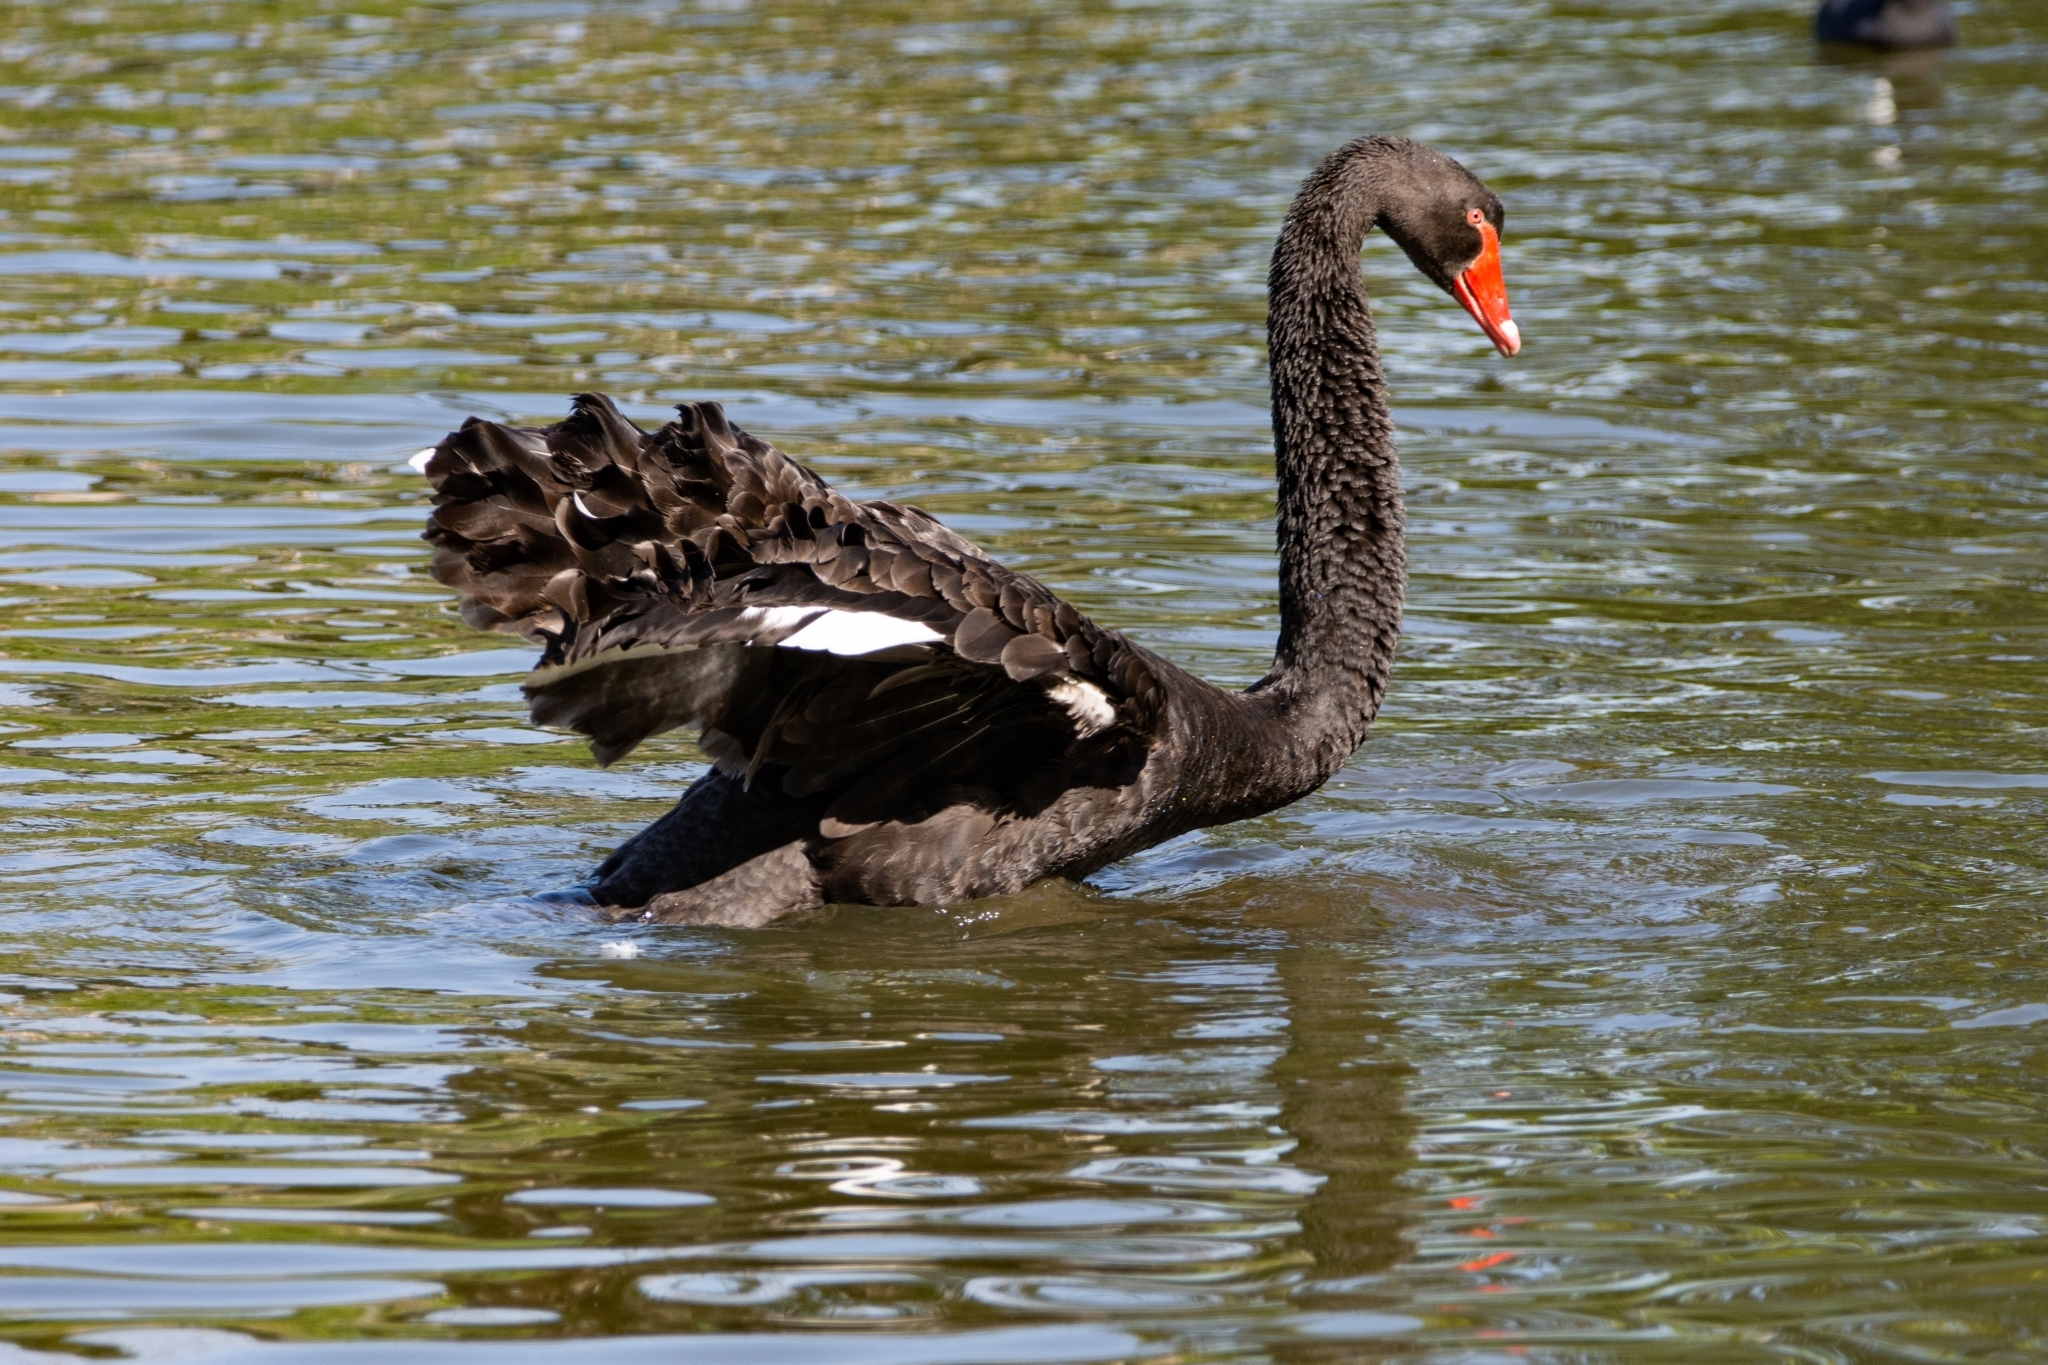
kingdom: Animalia
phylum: Chordata
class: Aves
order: Anseriformes
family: Anatidae
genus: Cygnus
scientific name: Cygnus atratus
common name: Black swan
